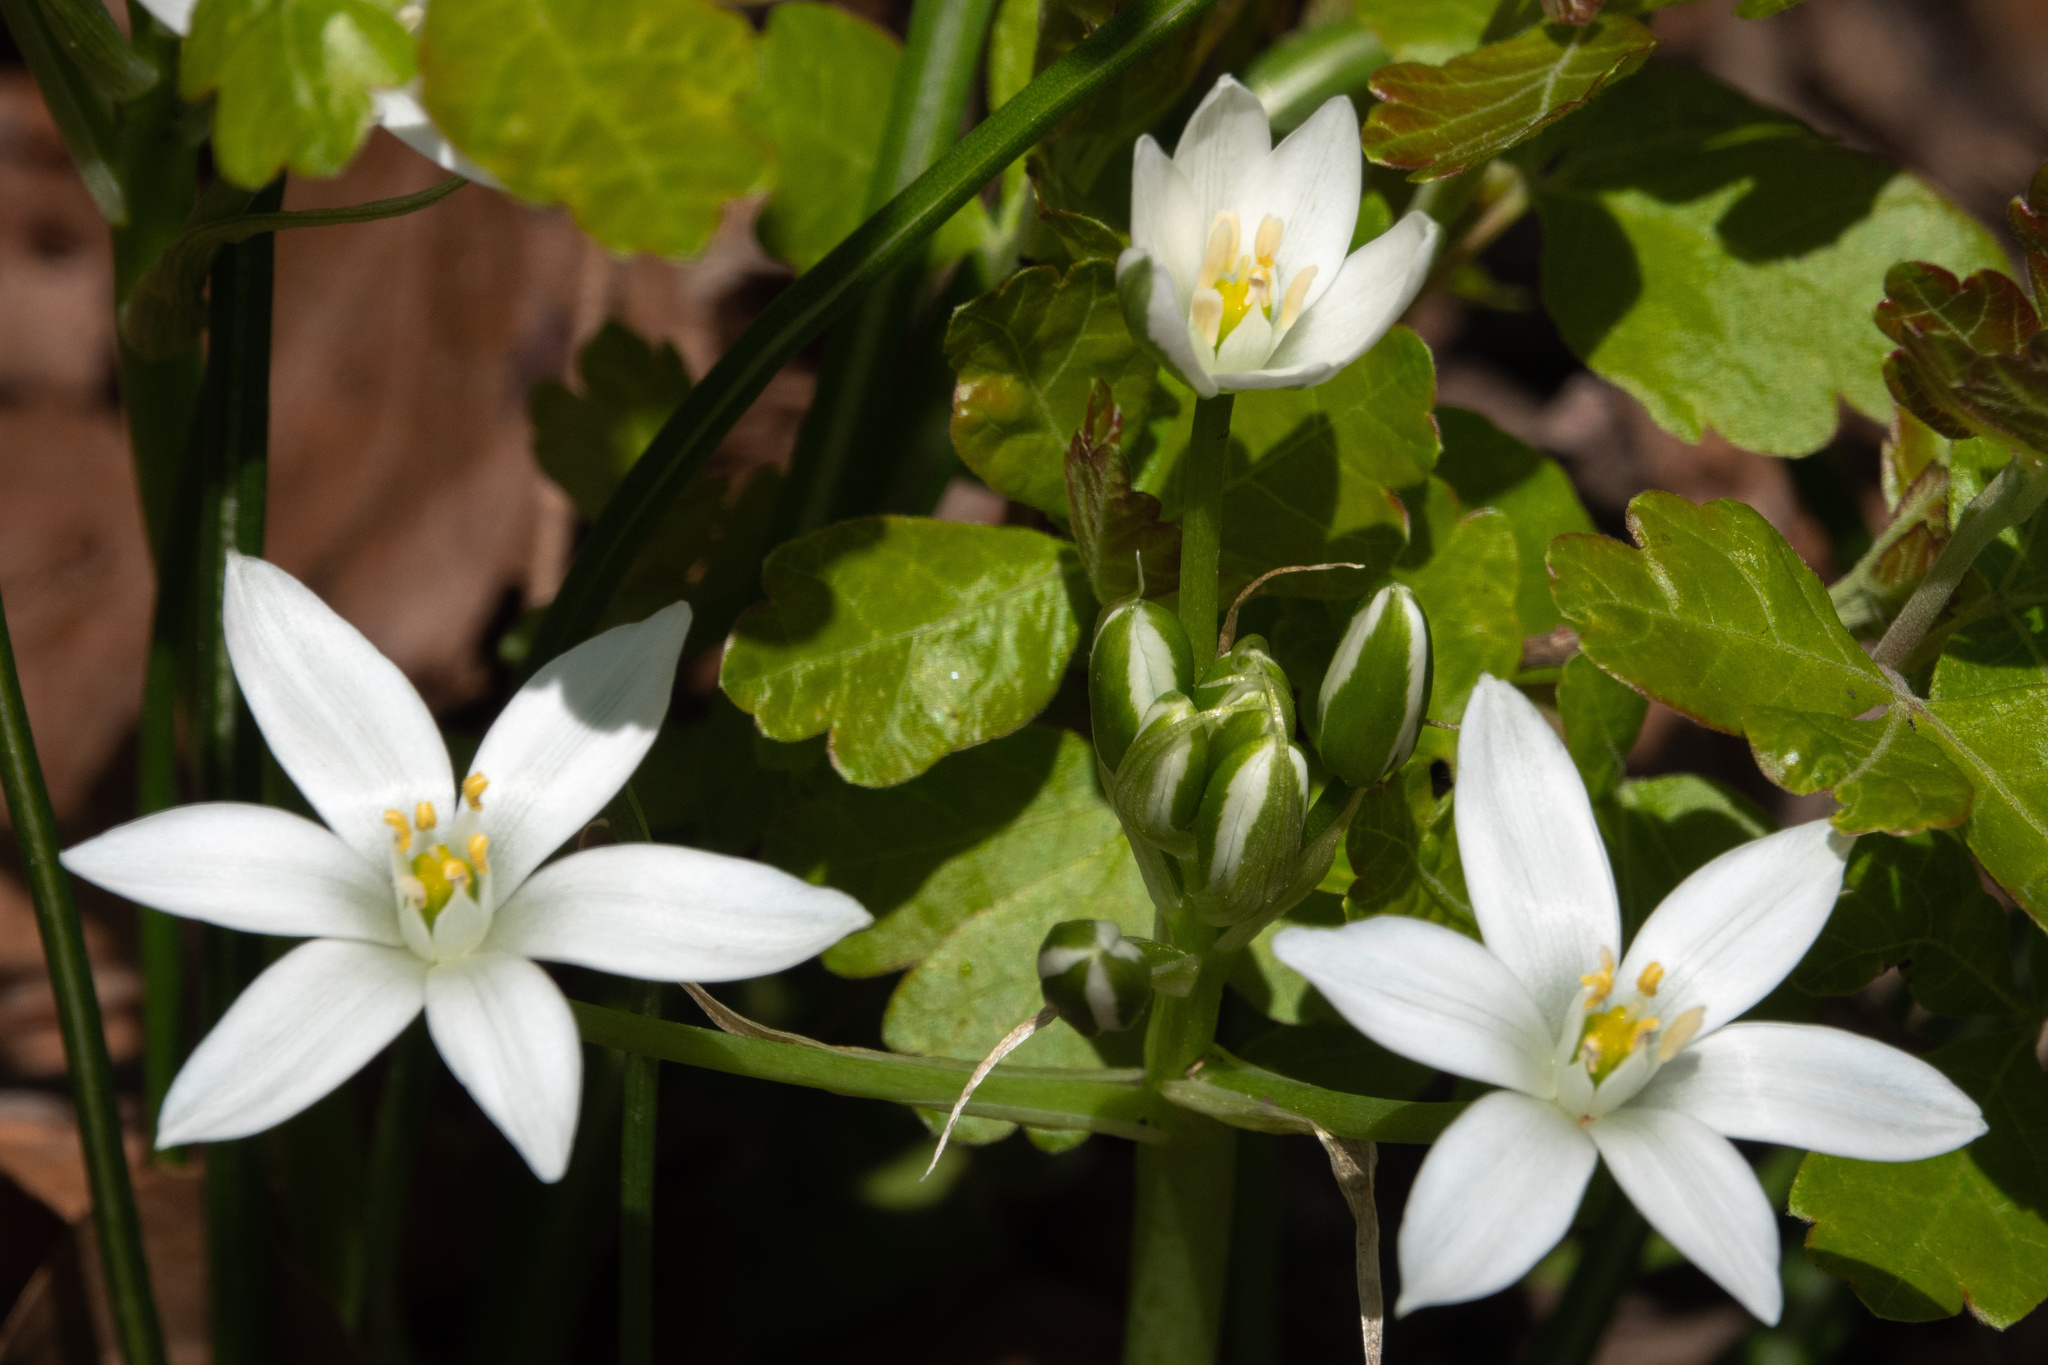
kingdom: Plantae
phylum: Tracheophyta
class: Liliopsida
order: Asparagales
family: Asparagaceae
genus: Ornithogalum
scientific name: Ornithogalum umbellatum
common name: Garden star-of-bethlehem
